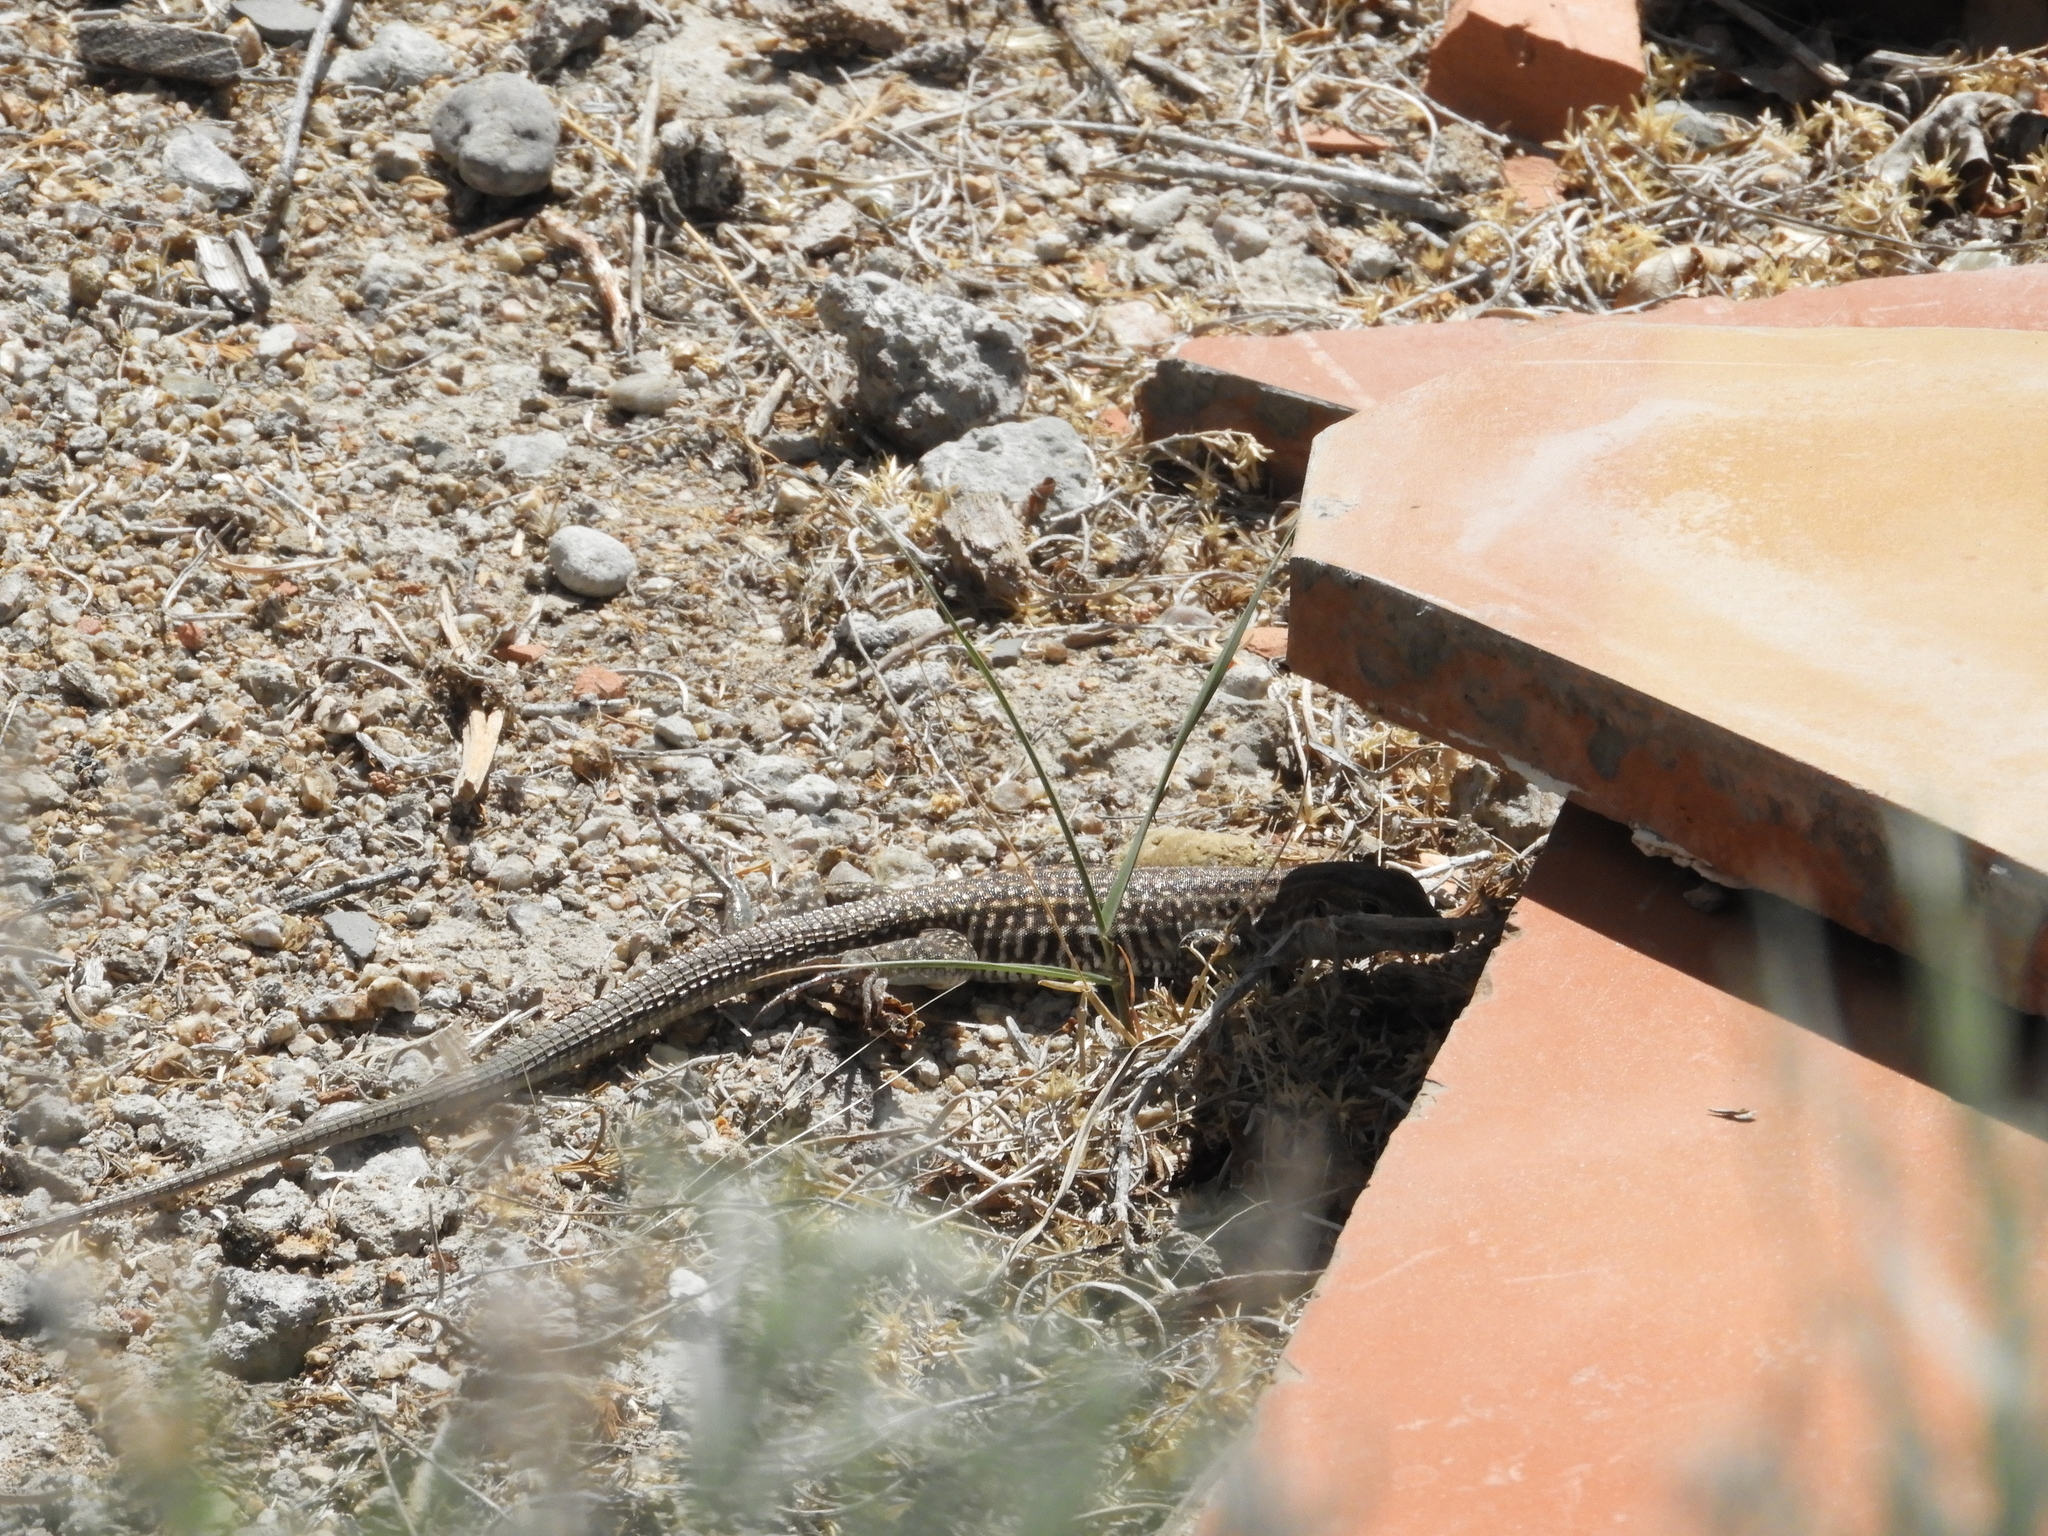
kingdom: Animalia
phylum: Chordata
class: Squamata
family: Teiidae
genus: Aspidoscelis
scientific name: Aspidoscelis exsanguis
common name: Chihuahuan spotted whiptail
